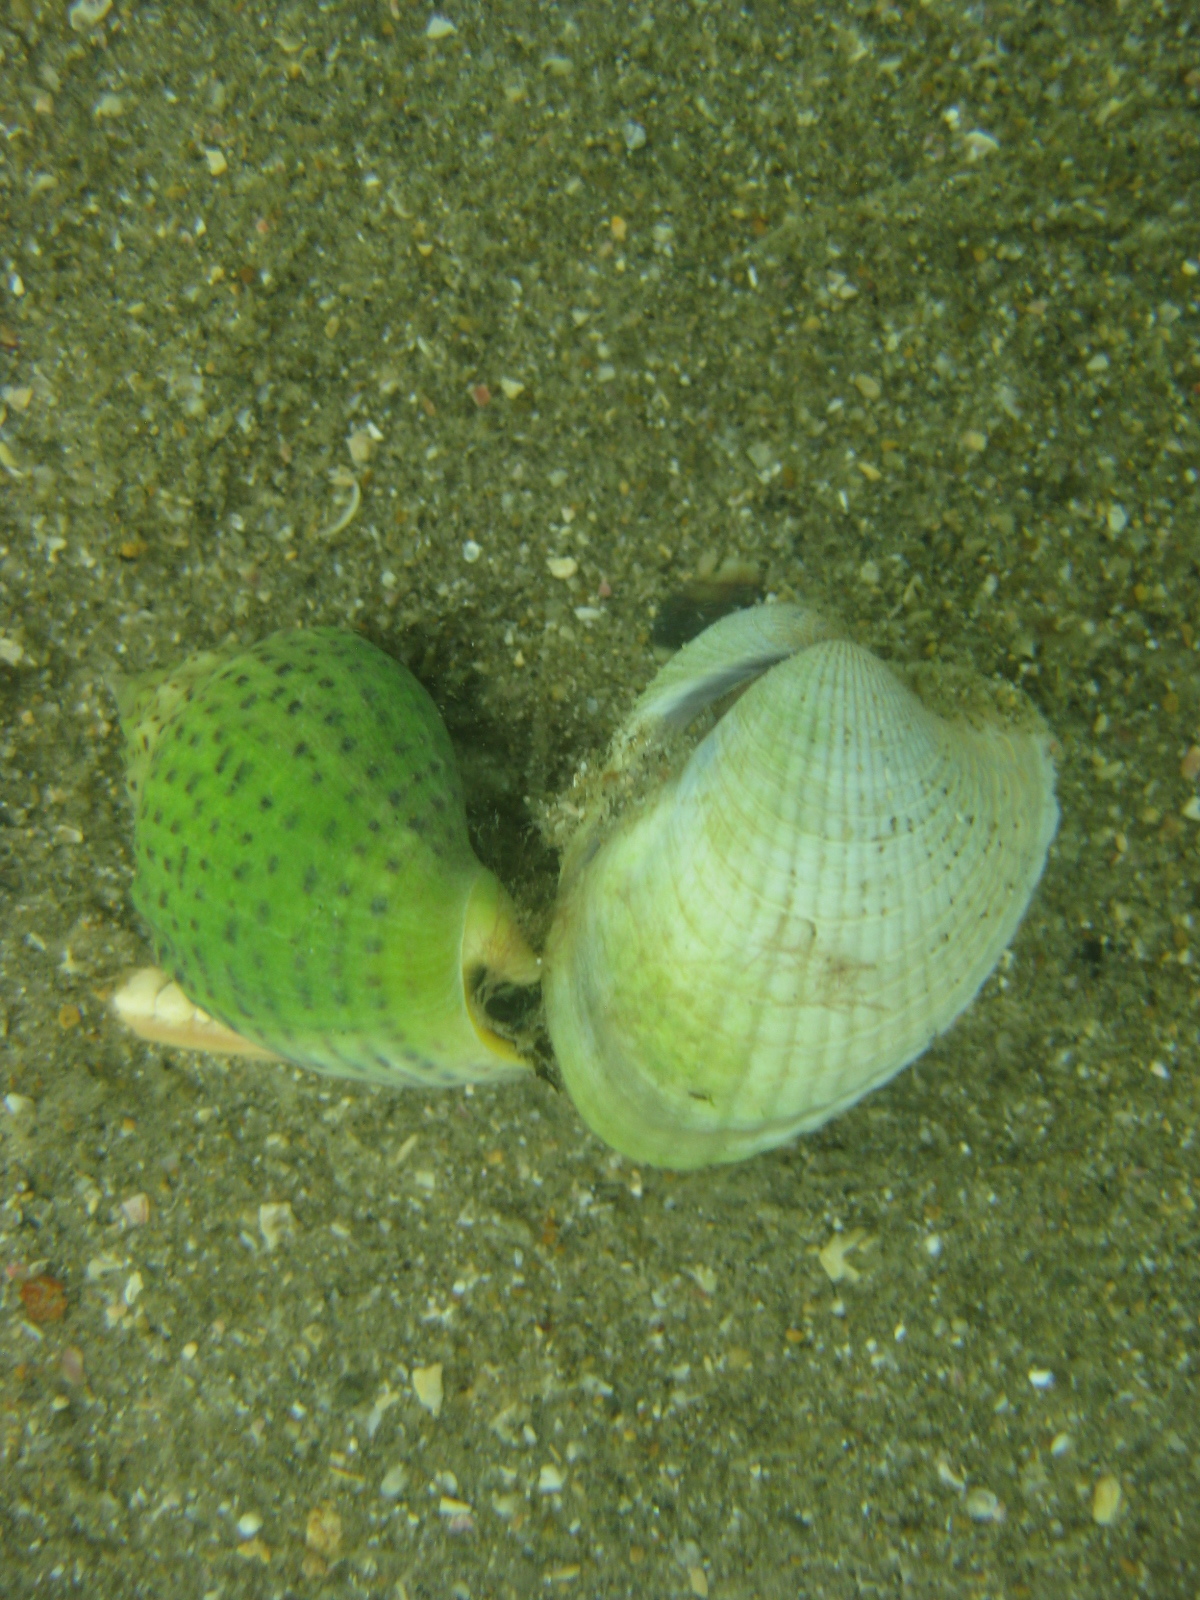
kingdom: Animalia
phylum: Mollusca
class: Gastropoda
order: Neogastropoda
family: Cominellidae
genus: Cominella
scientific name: Cominella adspersa
